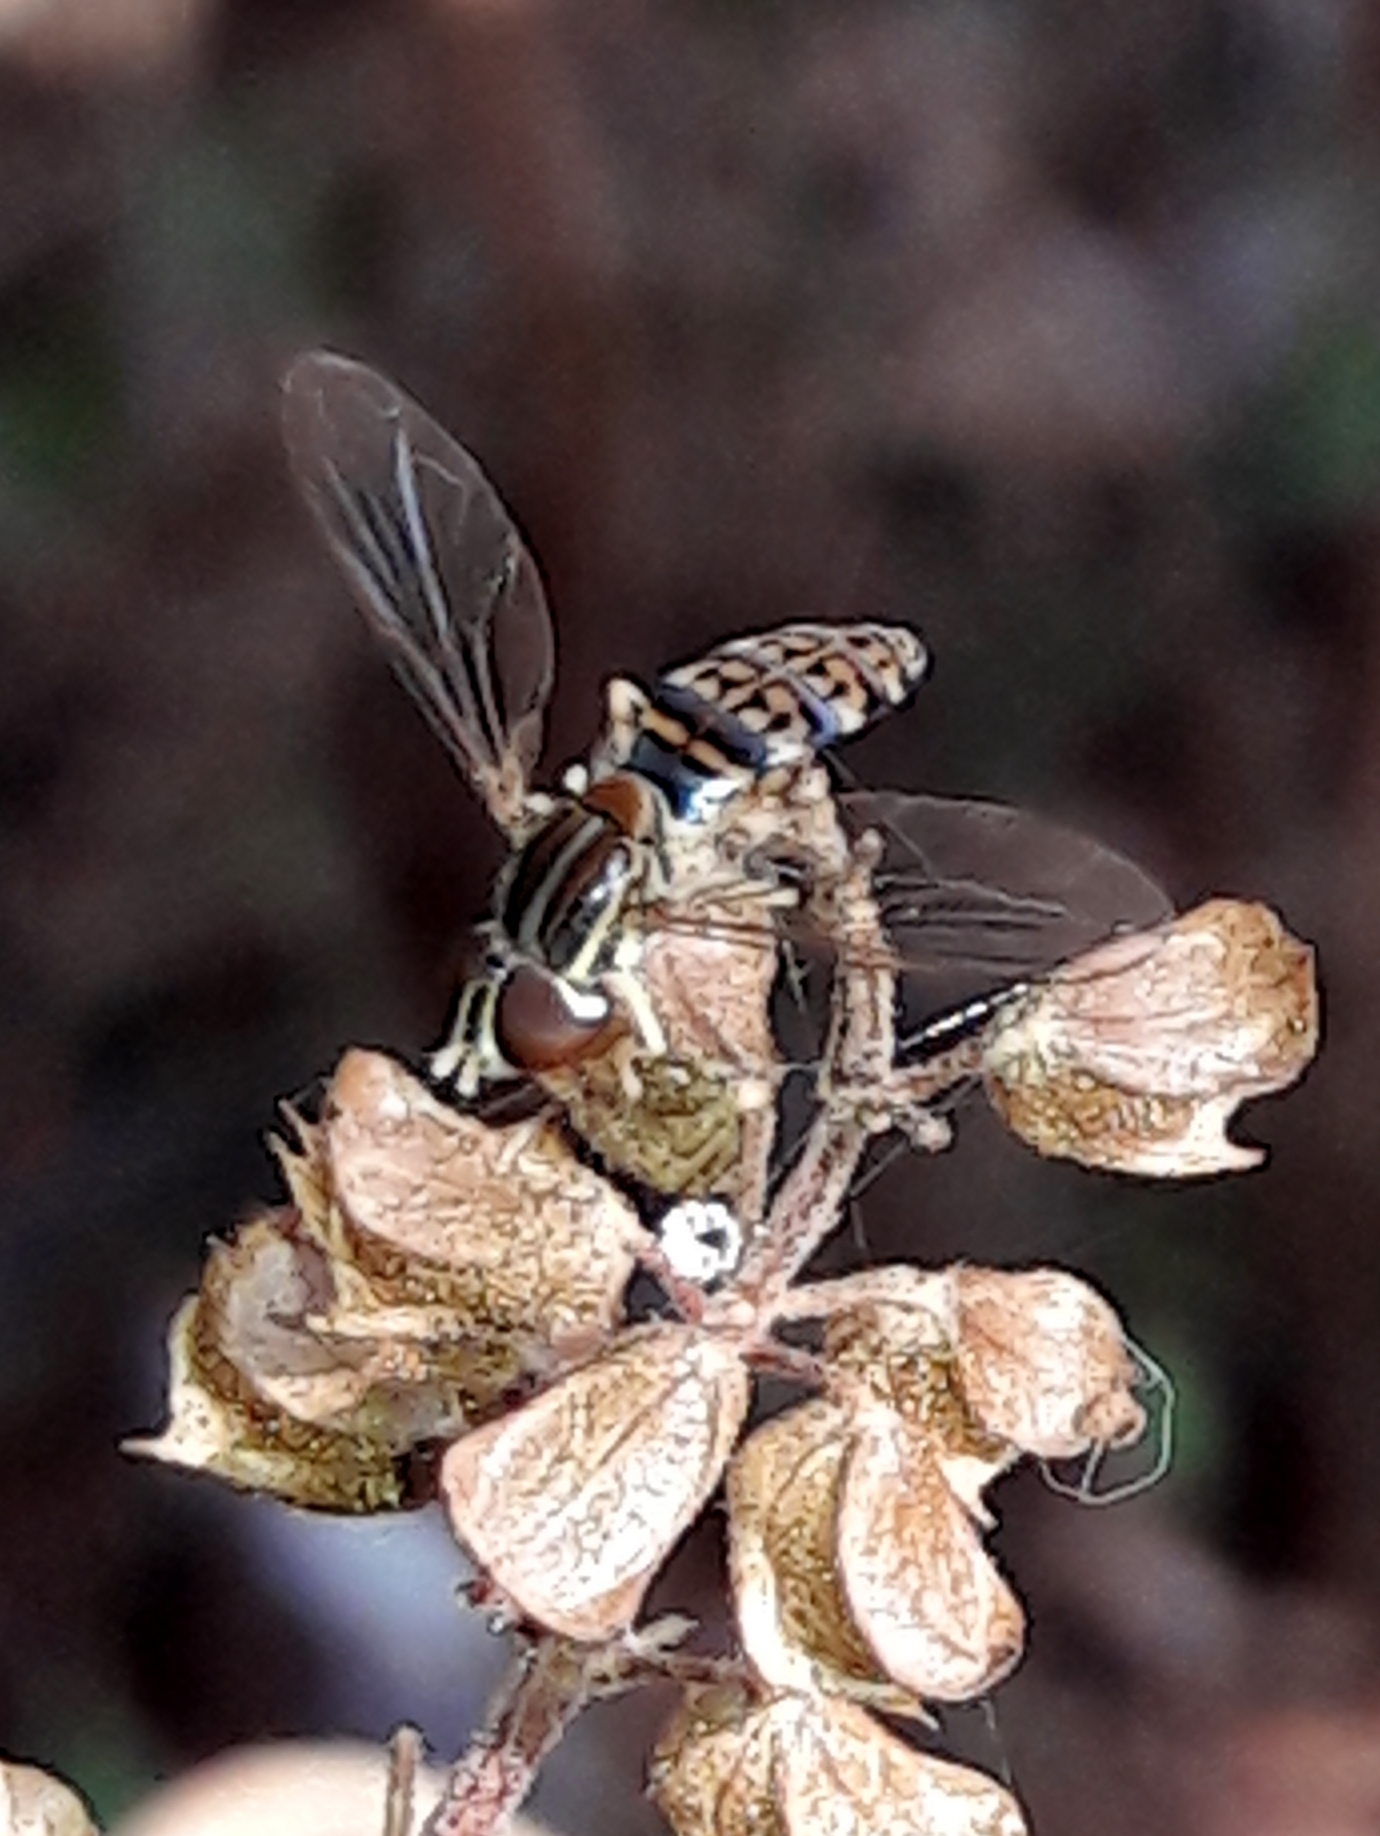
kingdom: Animalia
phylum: Arthropoda
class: Insecta
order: Diptera
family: Syrphidae
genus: Toxomerus
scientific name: Toxomerus
